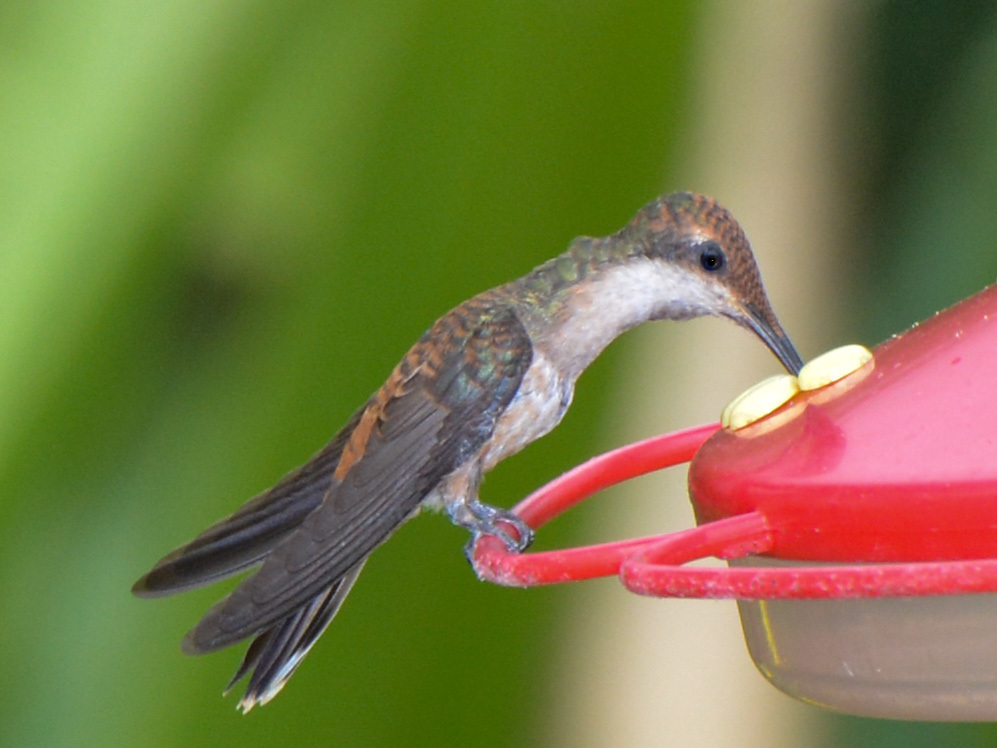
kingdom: Animalia
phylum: Chordata
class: Aves
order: Apodiformes
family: Trochilidae
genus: Colibri
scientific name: Colibri delphinae
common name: Brown violetear
